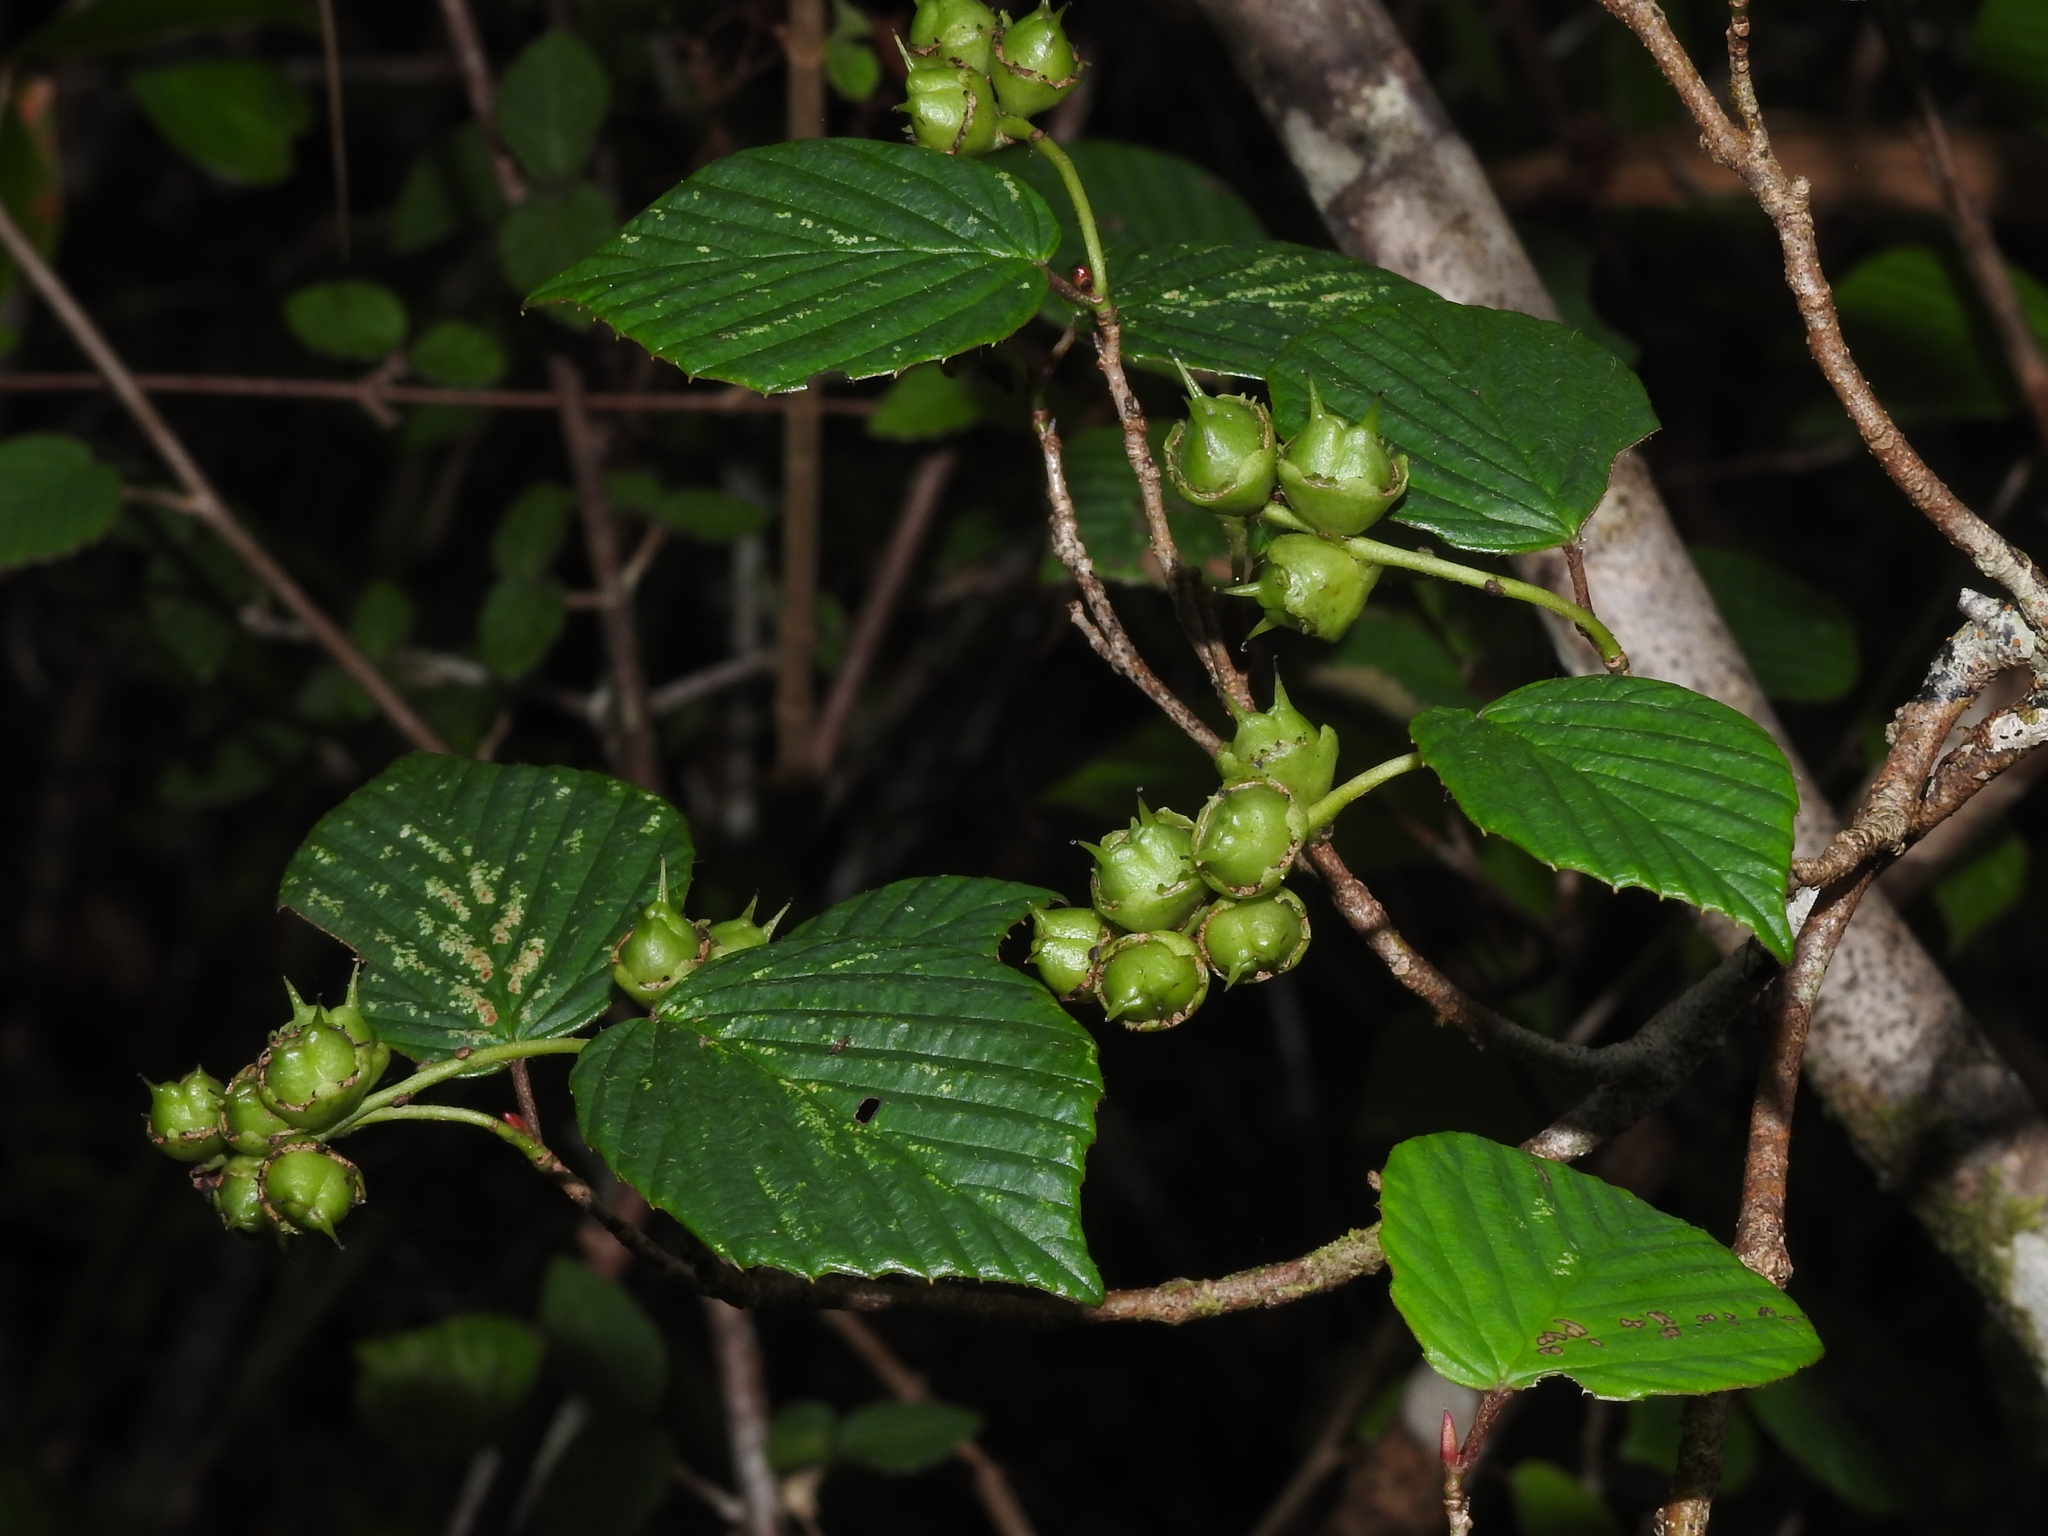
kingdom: Plantae
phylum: Tracheophyta
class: Magnoliopsida
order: Saxifragales
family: Hamamelidaceae
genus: Corylopsis
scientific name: Corylopsis pauciflora
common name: Buttercup winter-hazel
